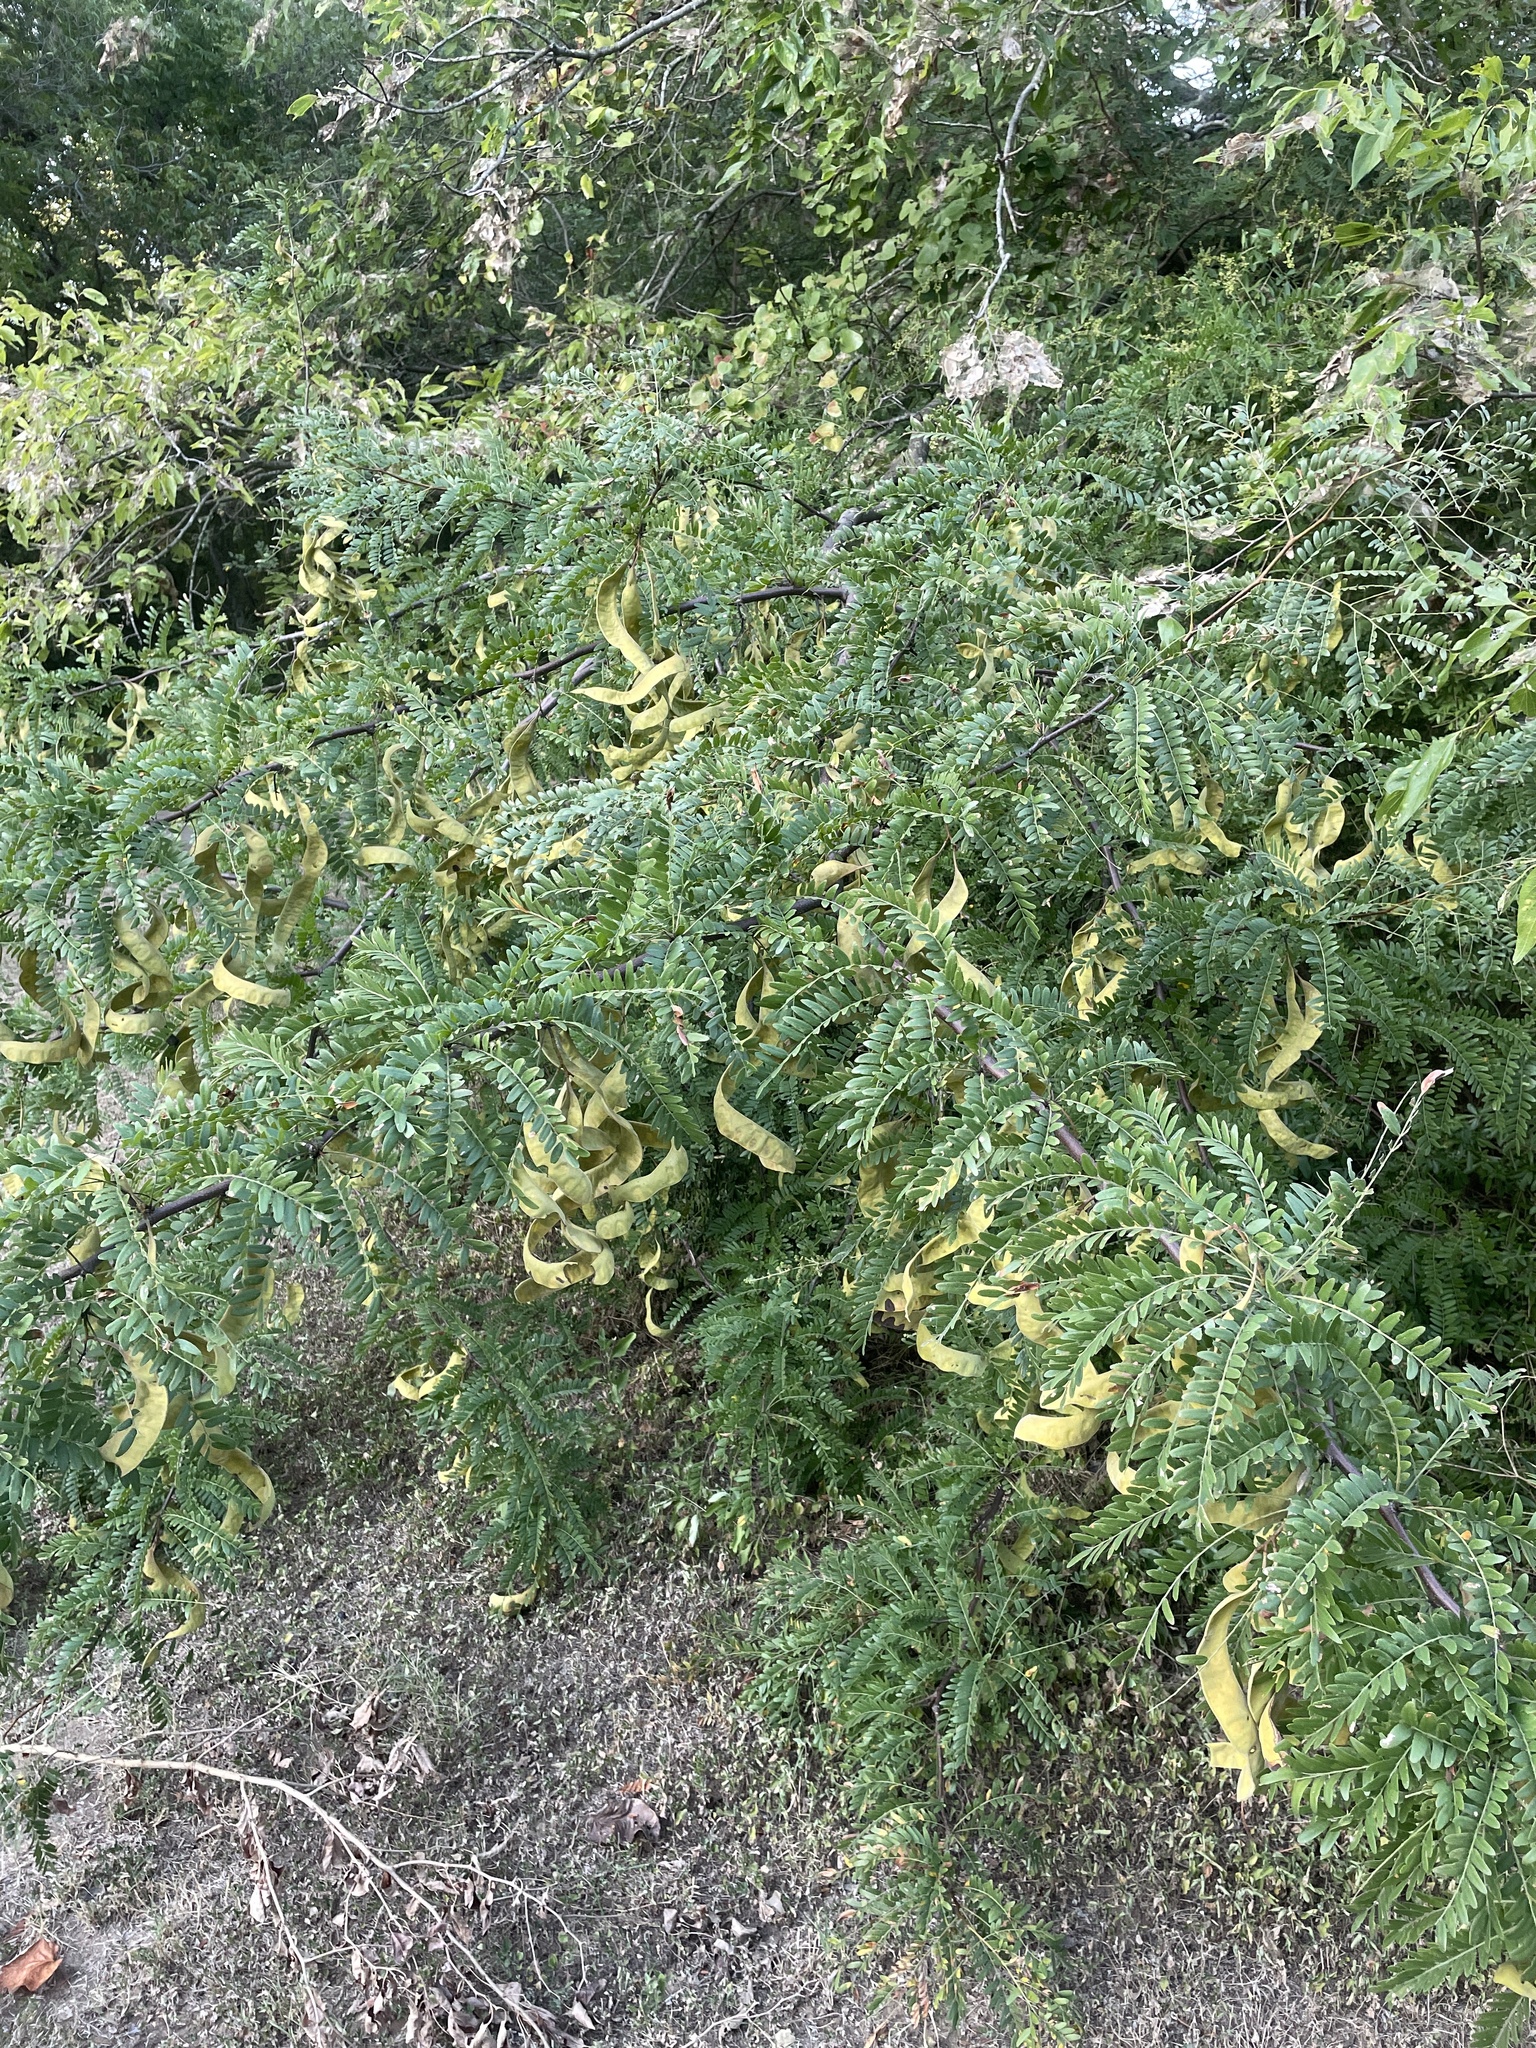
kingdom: Plantae
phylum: Tracheophyta
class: Magnoliopsida
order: Fabales
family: Fabaceae
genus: Gleditsia
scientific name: Gleditsia triacanthos
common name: Common honeylocust
